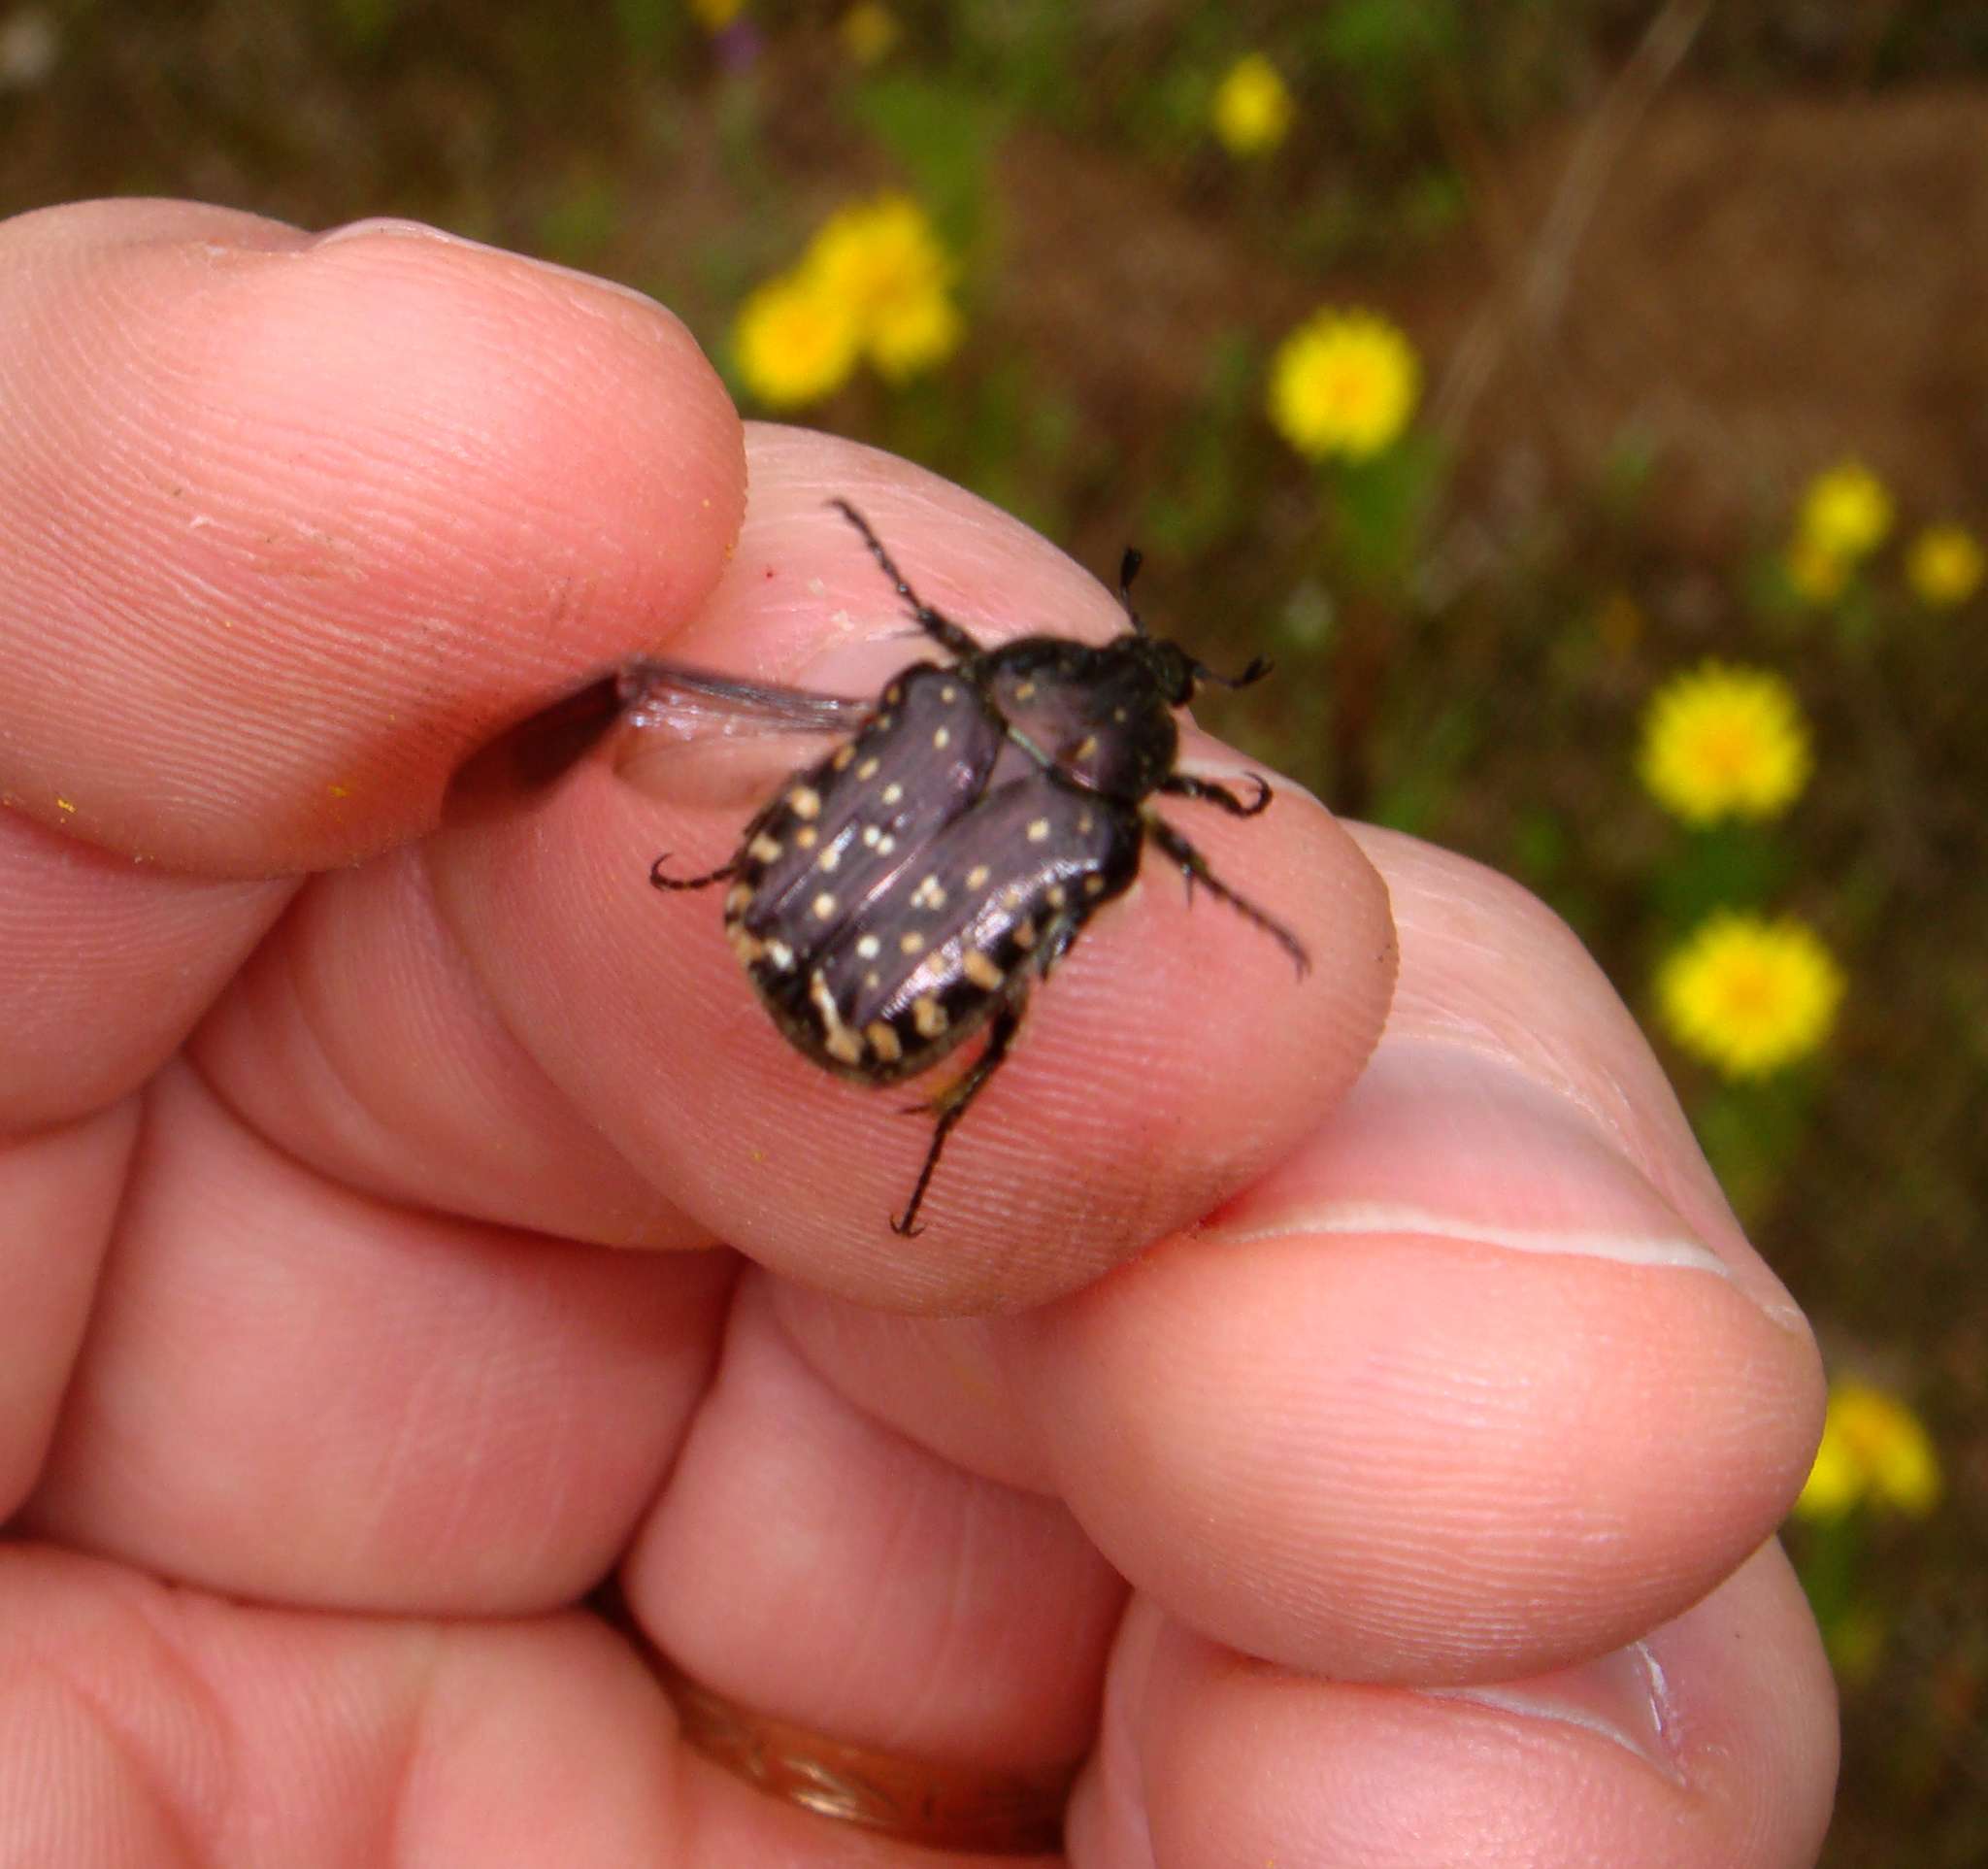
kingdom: Animalia
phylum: Arthropoda
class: Insecta
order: Coleoptera
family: Scarabaeidae
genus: Oxythyrea
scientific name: Oxythyrea funesta
